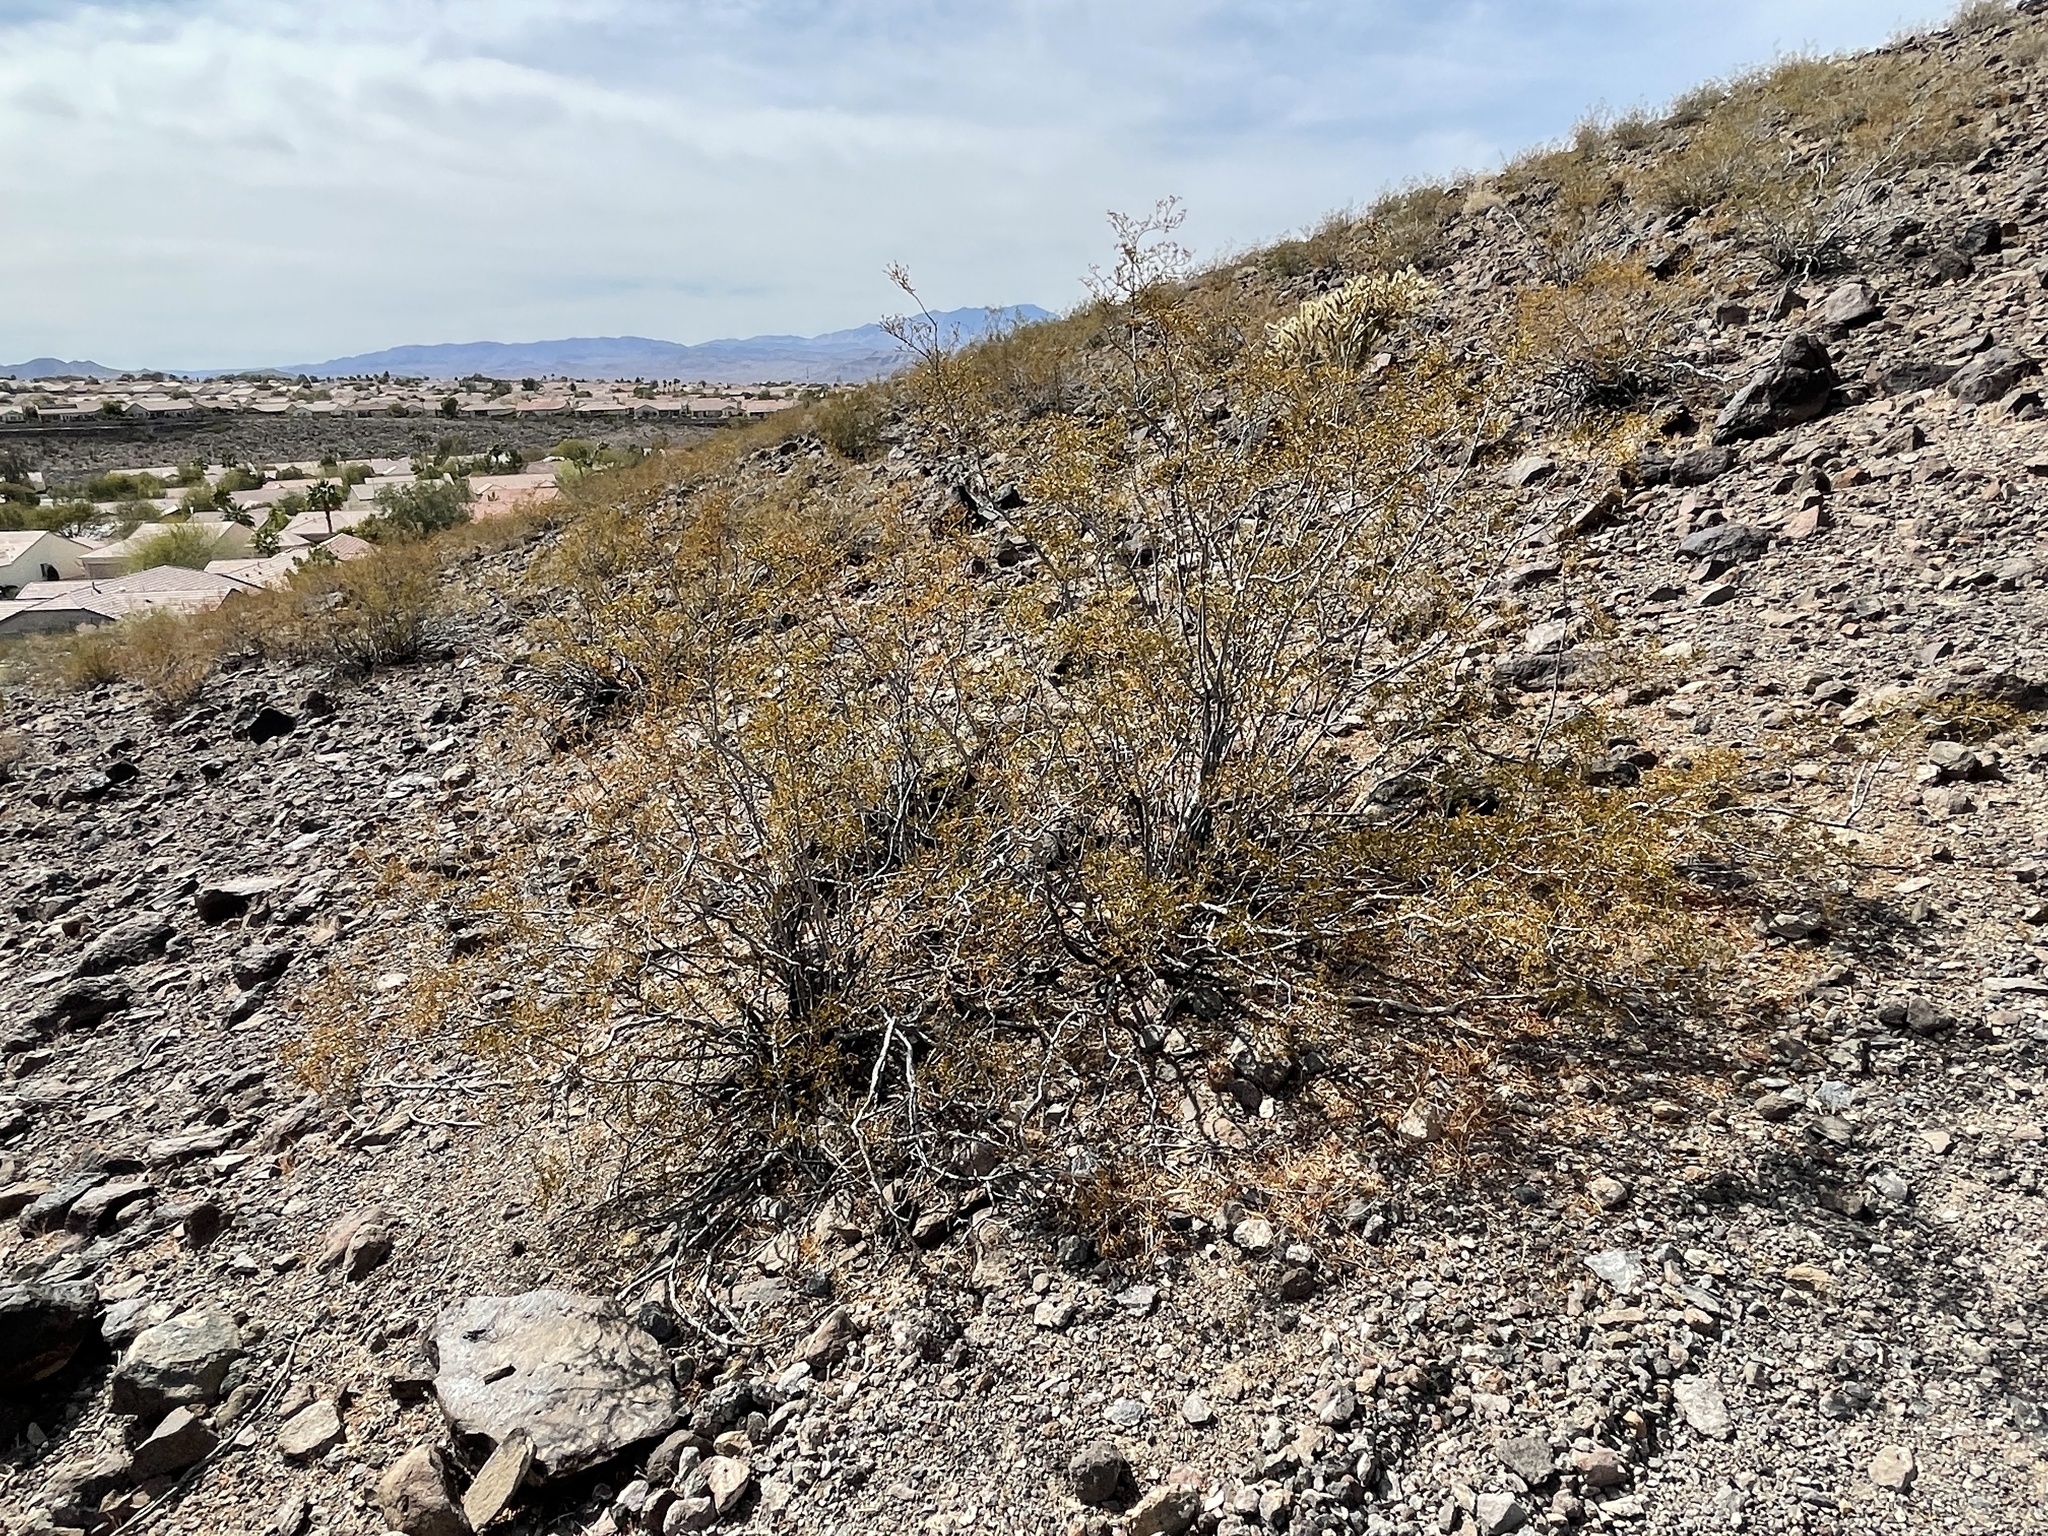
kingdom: Plantae
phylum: Tracheophyta
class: Magnoliopsida
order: Zygophyllales
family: Zygophyllaceae
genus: Larrea
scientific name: Larrea tridentata
